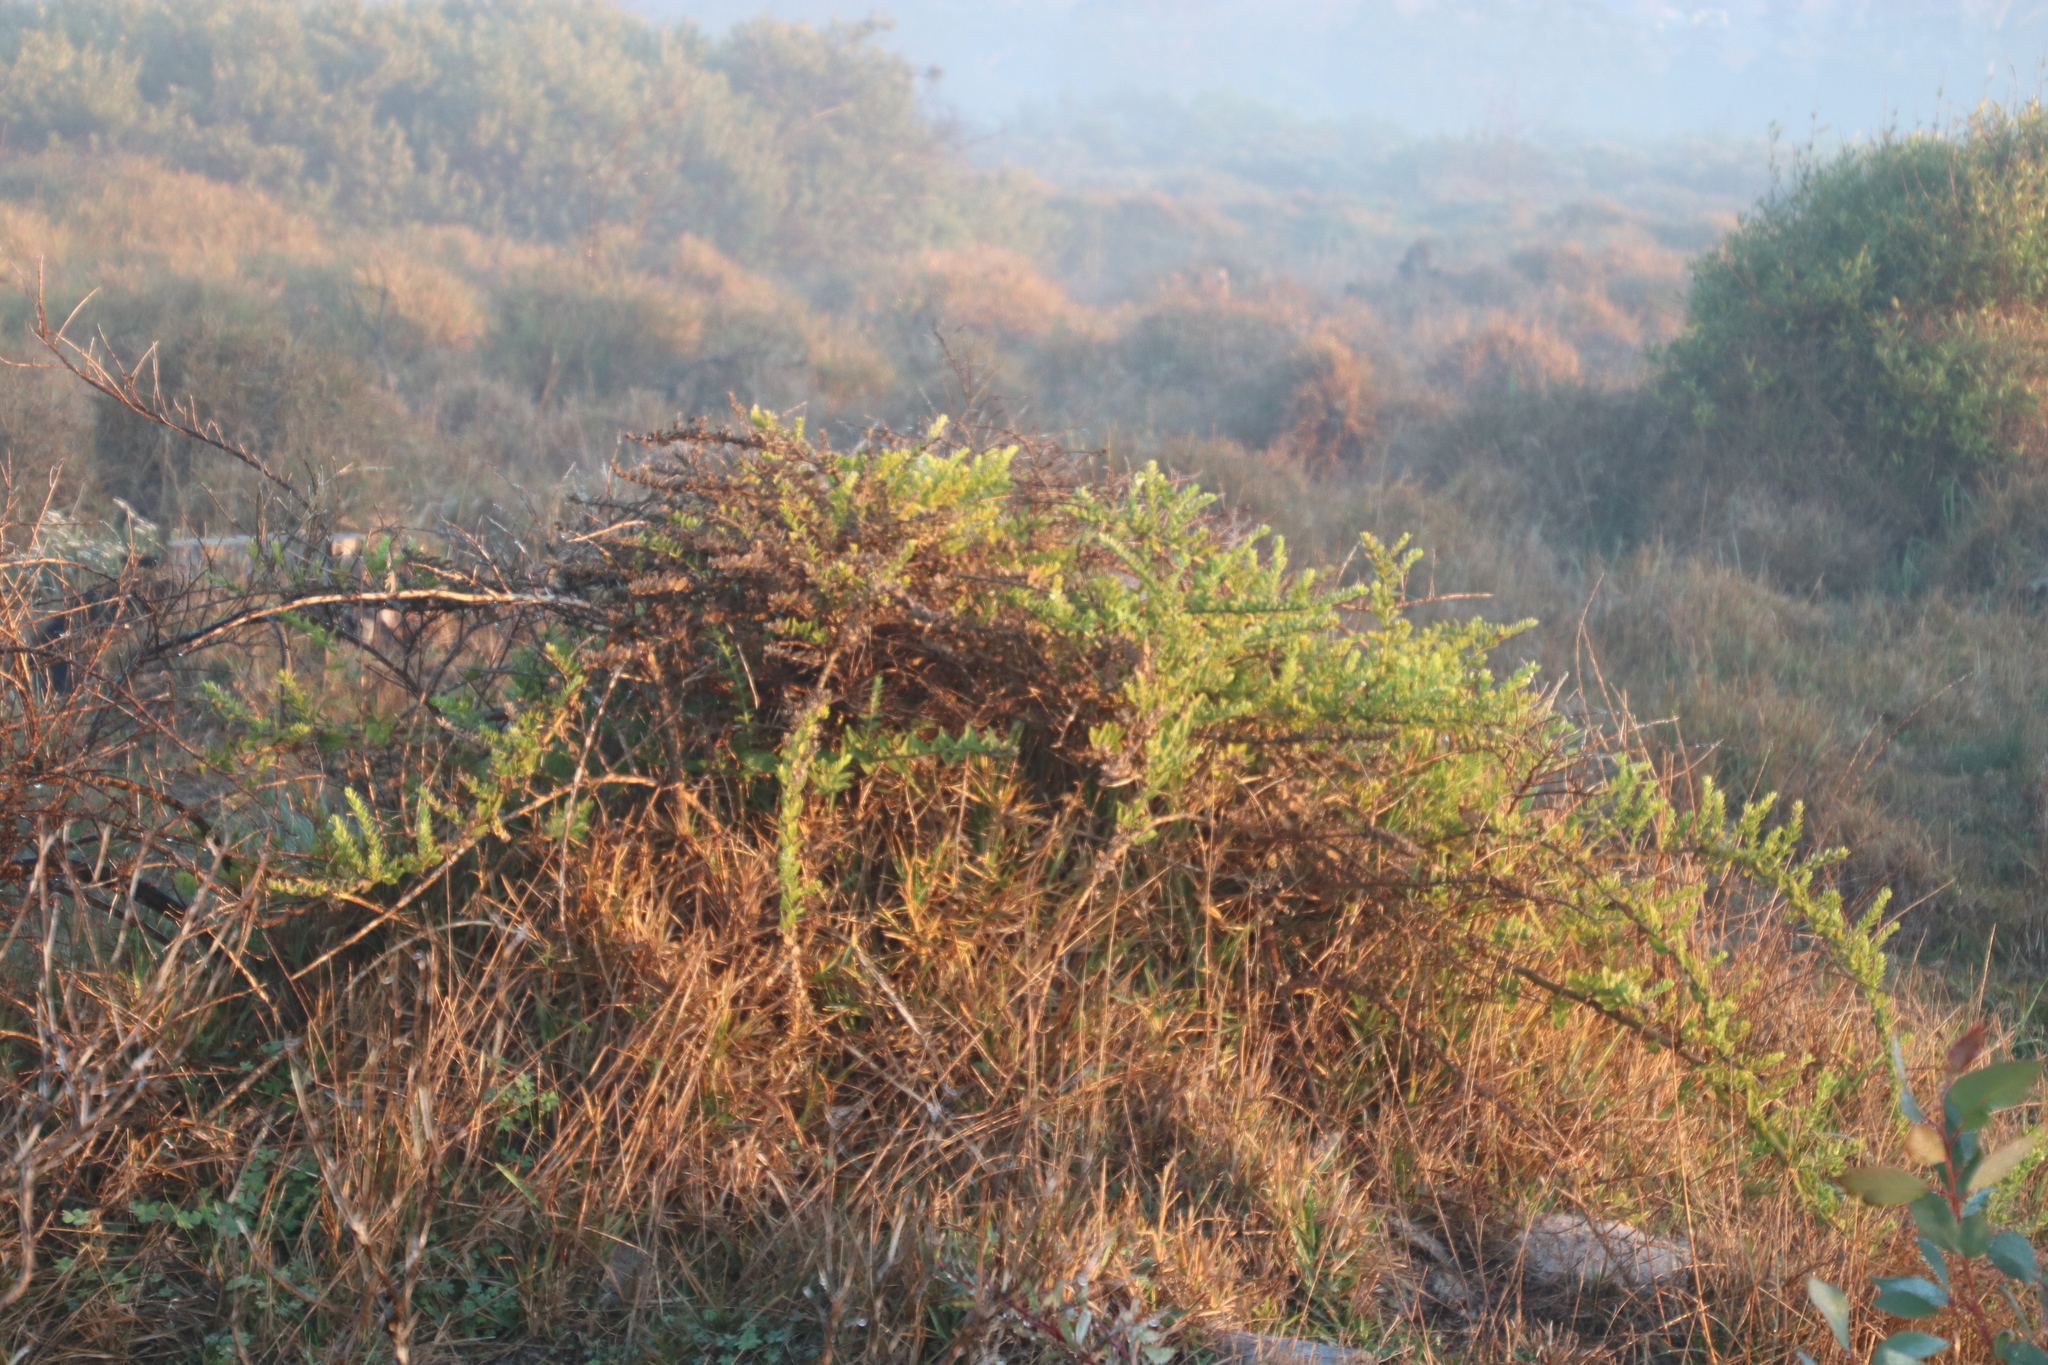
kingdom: Plantae
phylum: Tracheophyta
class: Magnoliopsida
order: Lamiales
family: Scrophulariaceae
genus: Oftia
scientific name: Oftia africana
